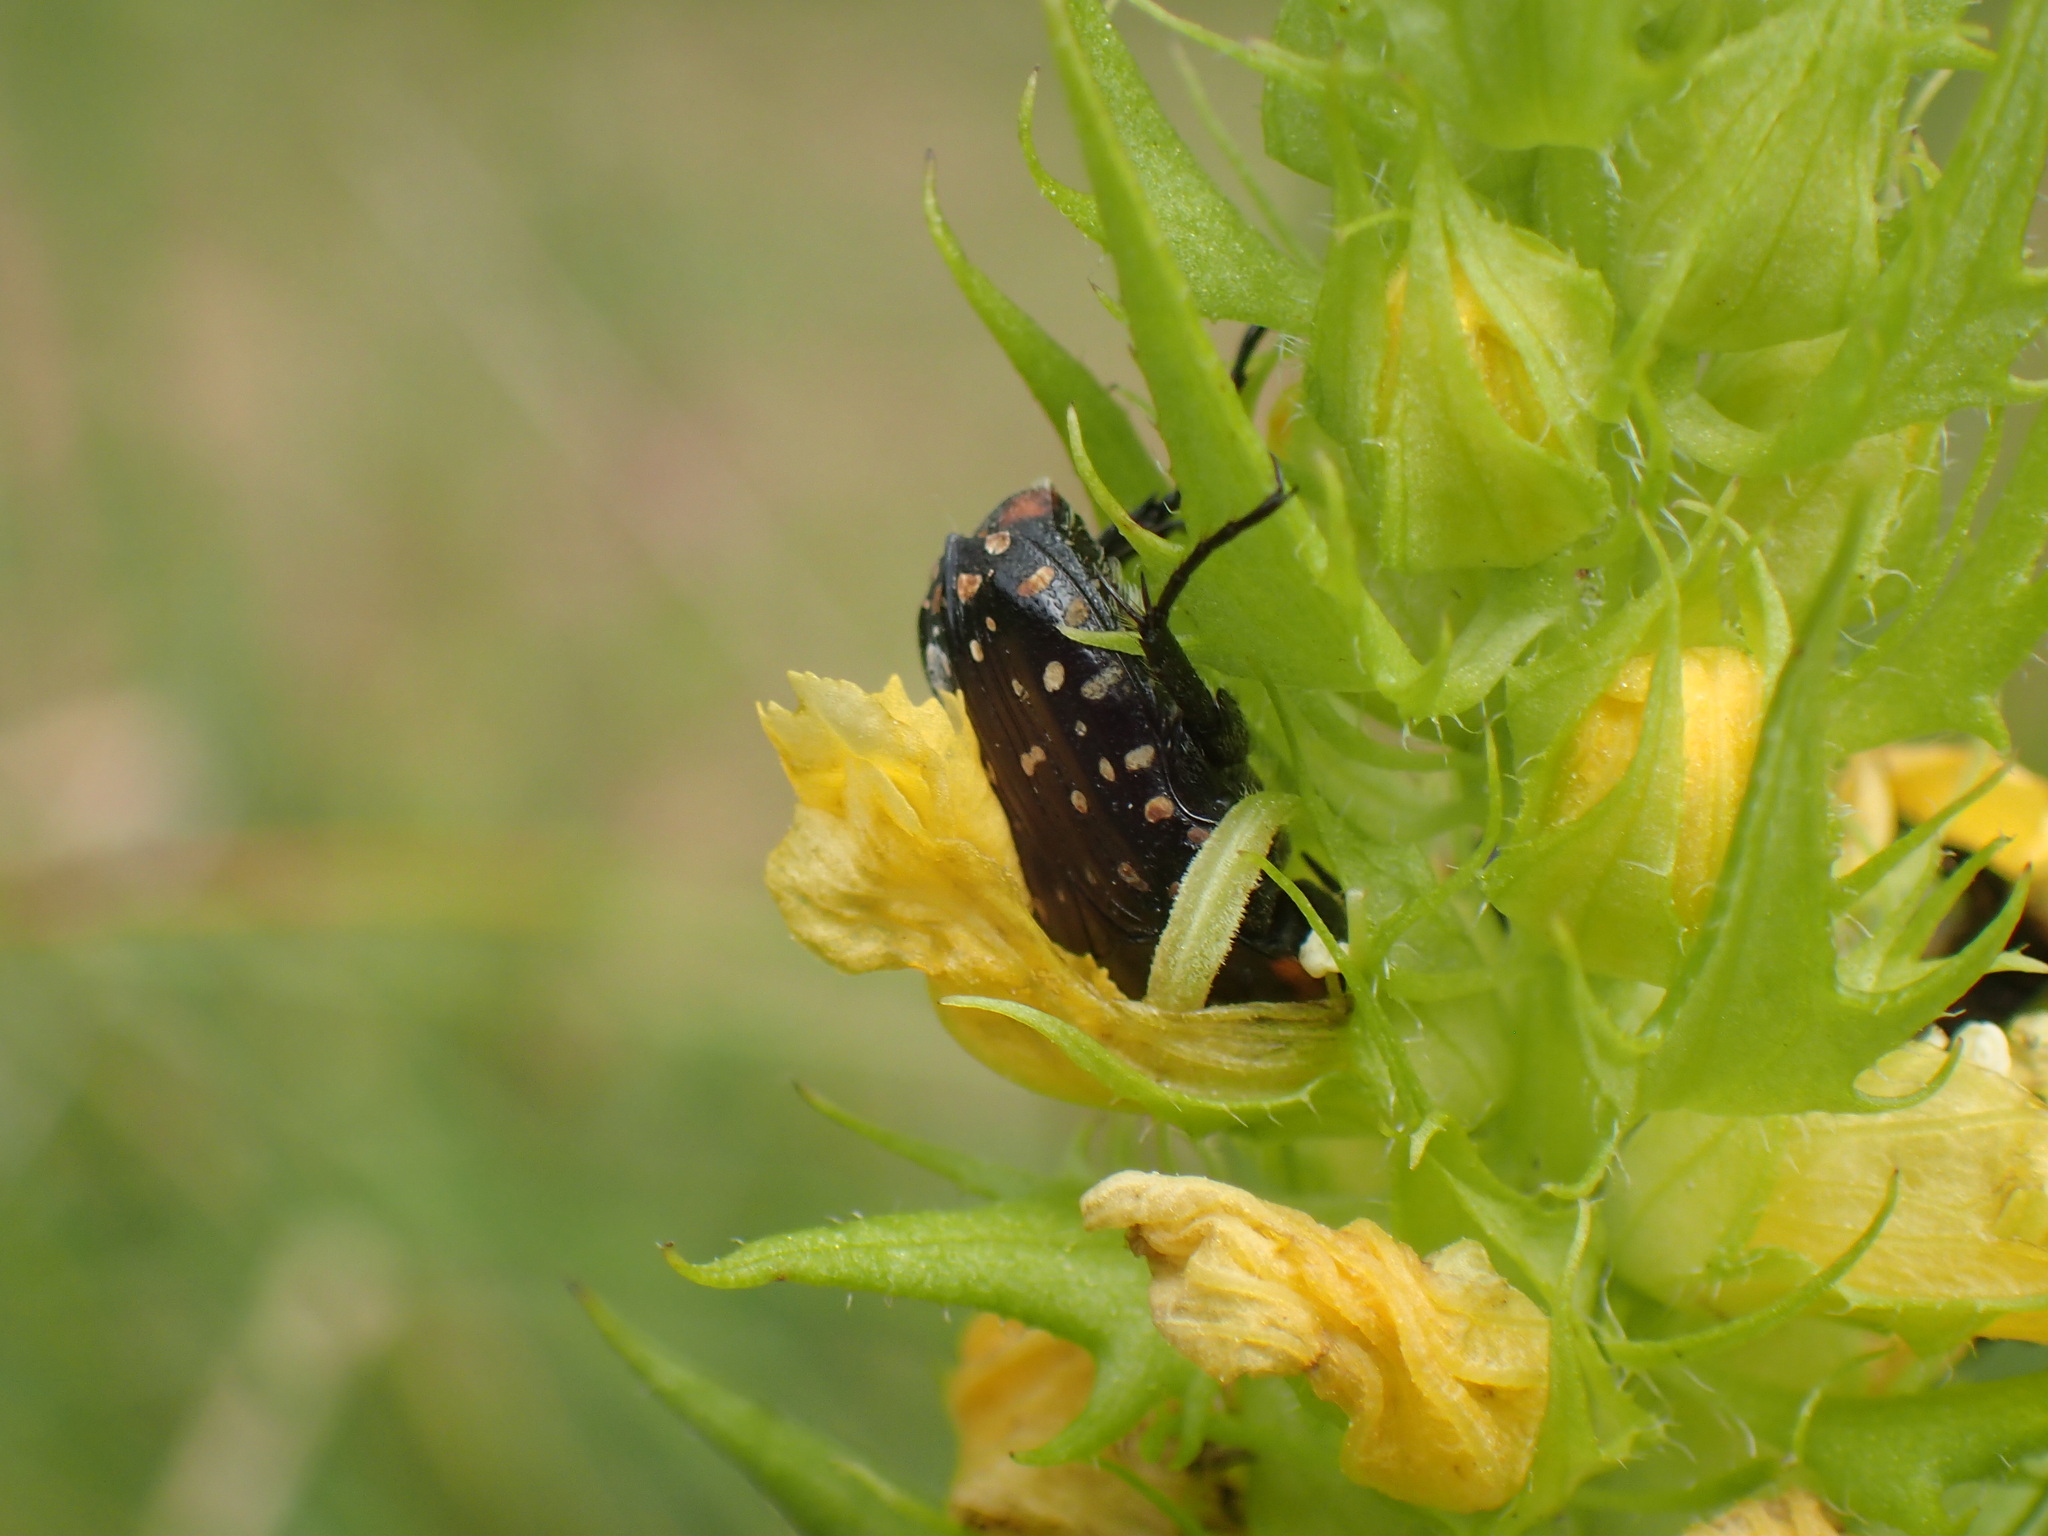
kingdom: Animalia
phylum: Arthropoda
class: Insecta
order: Coleoptera
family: Scarabaeidae
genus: Oxythyrea
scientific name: Oxythyrea
